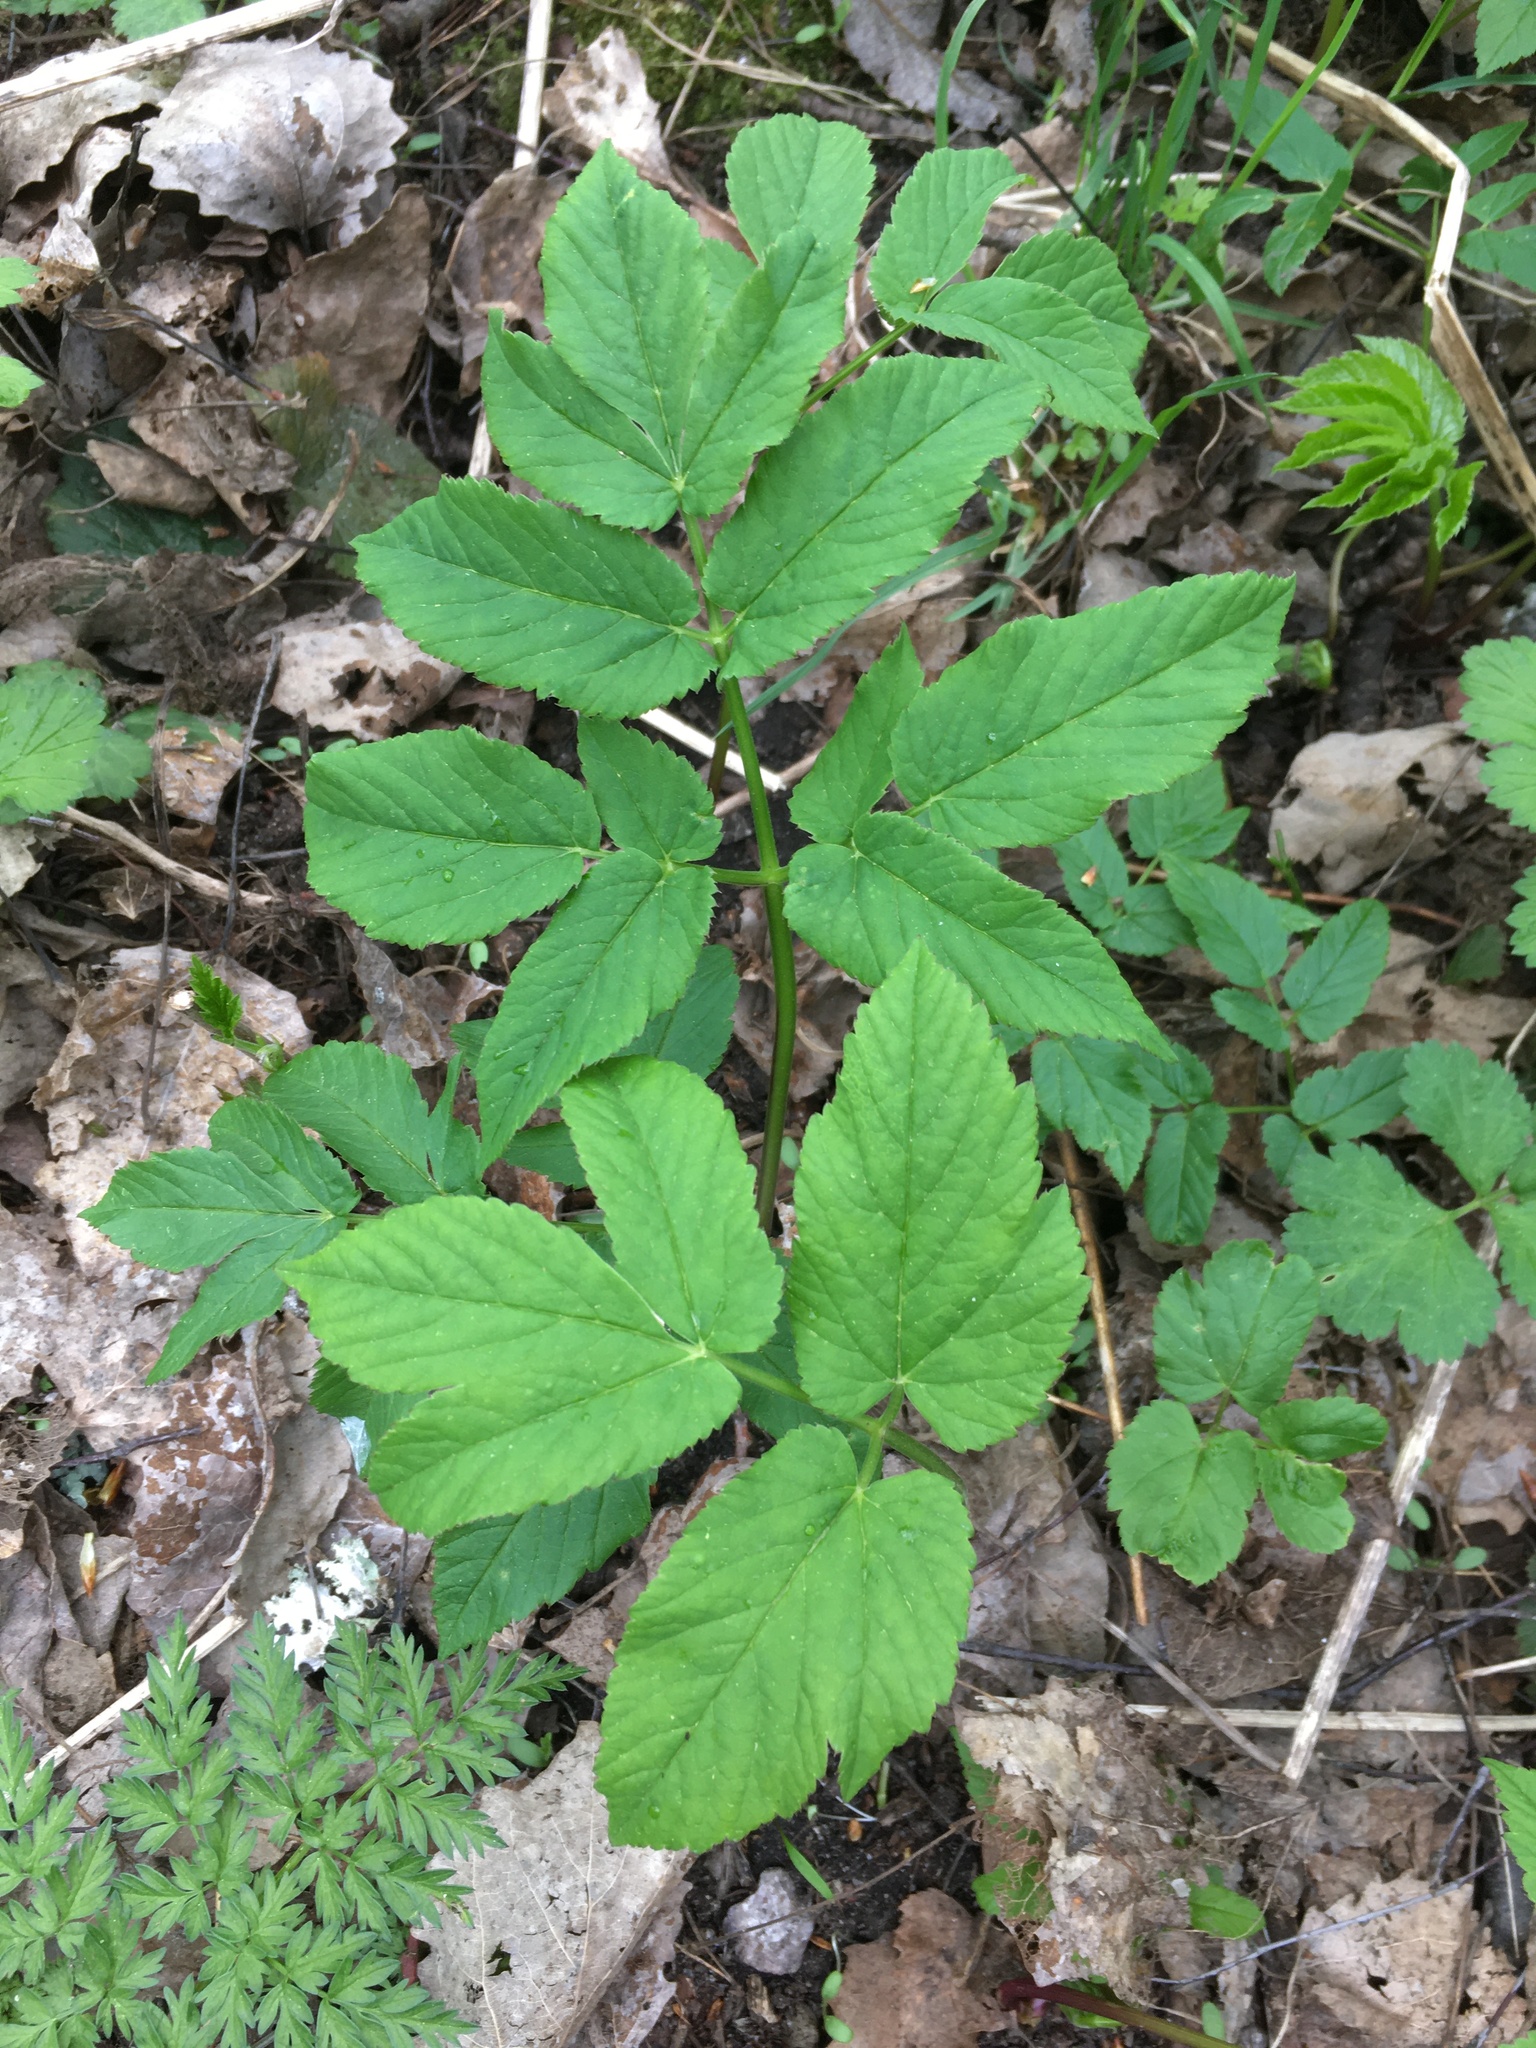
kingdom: Plantae
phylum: Tracheophyta
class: Magnoliopsida
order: Apiales
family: Apiaceae
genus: Aegopodium
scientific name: Aegopodium podagraria
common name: Ground-elder
